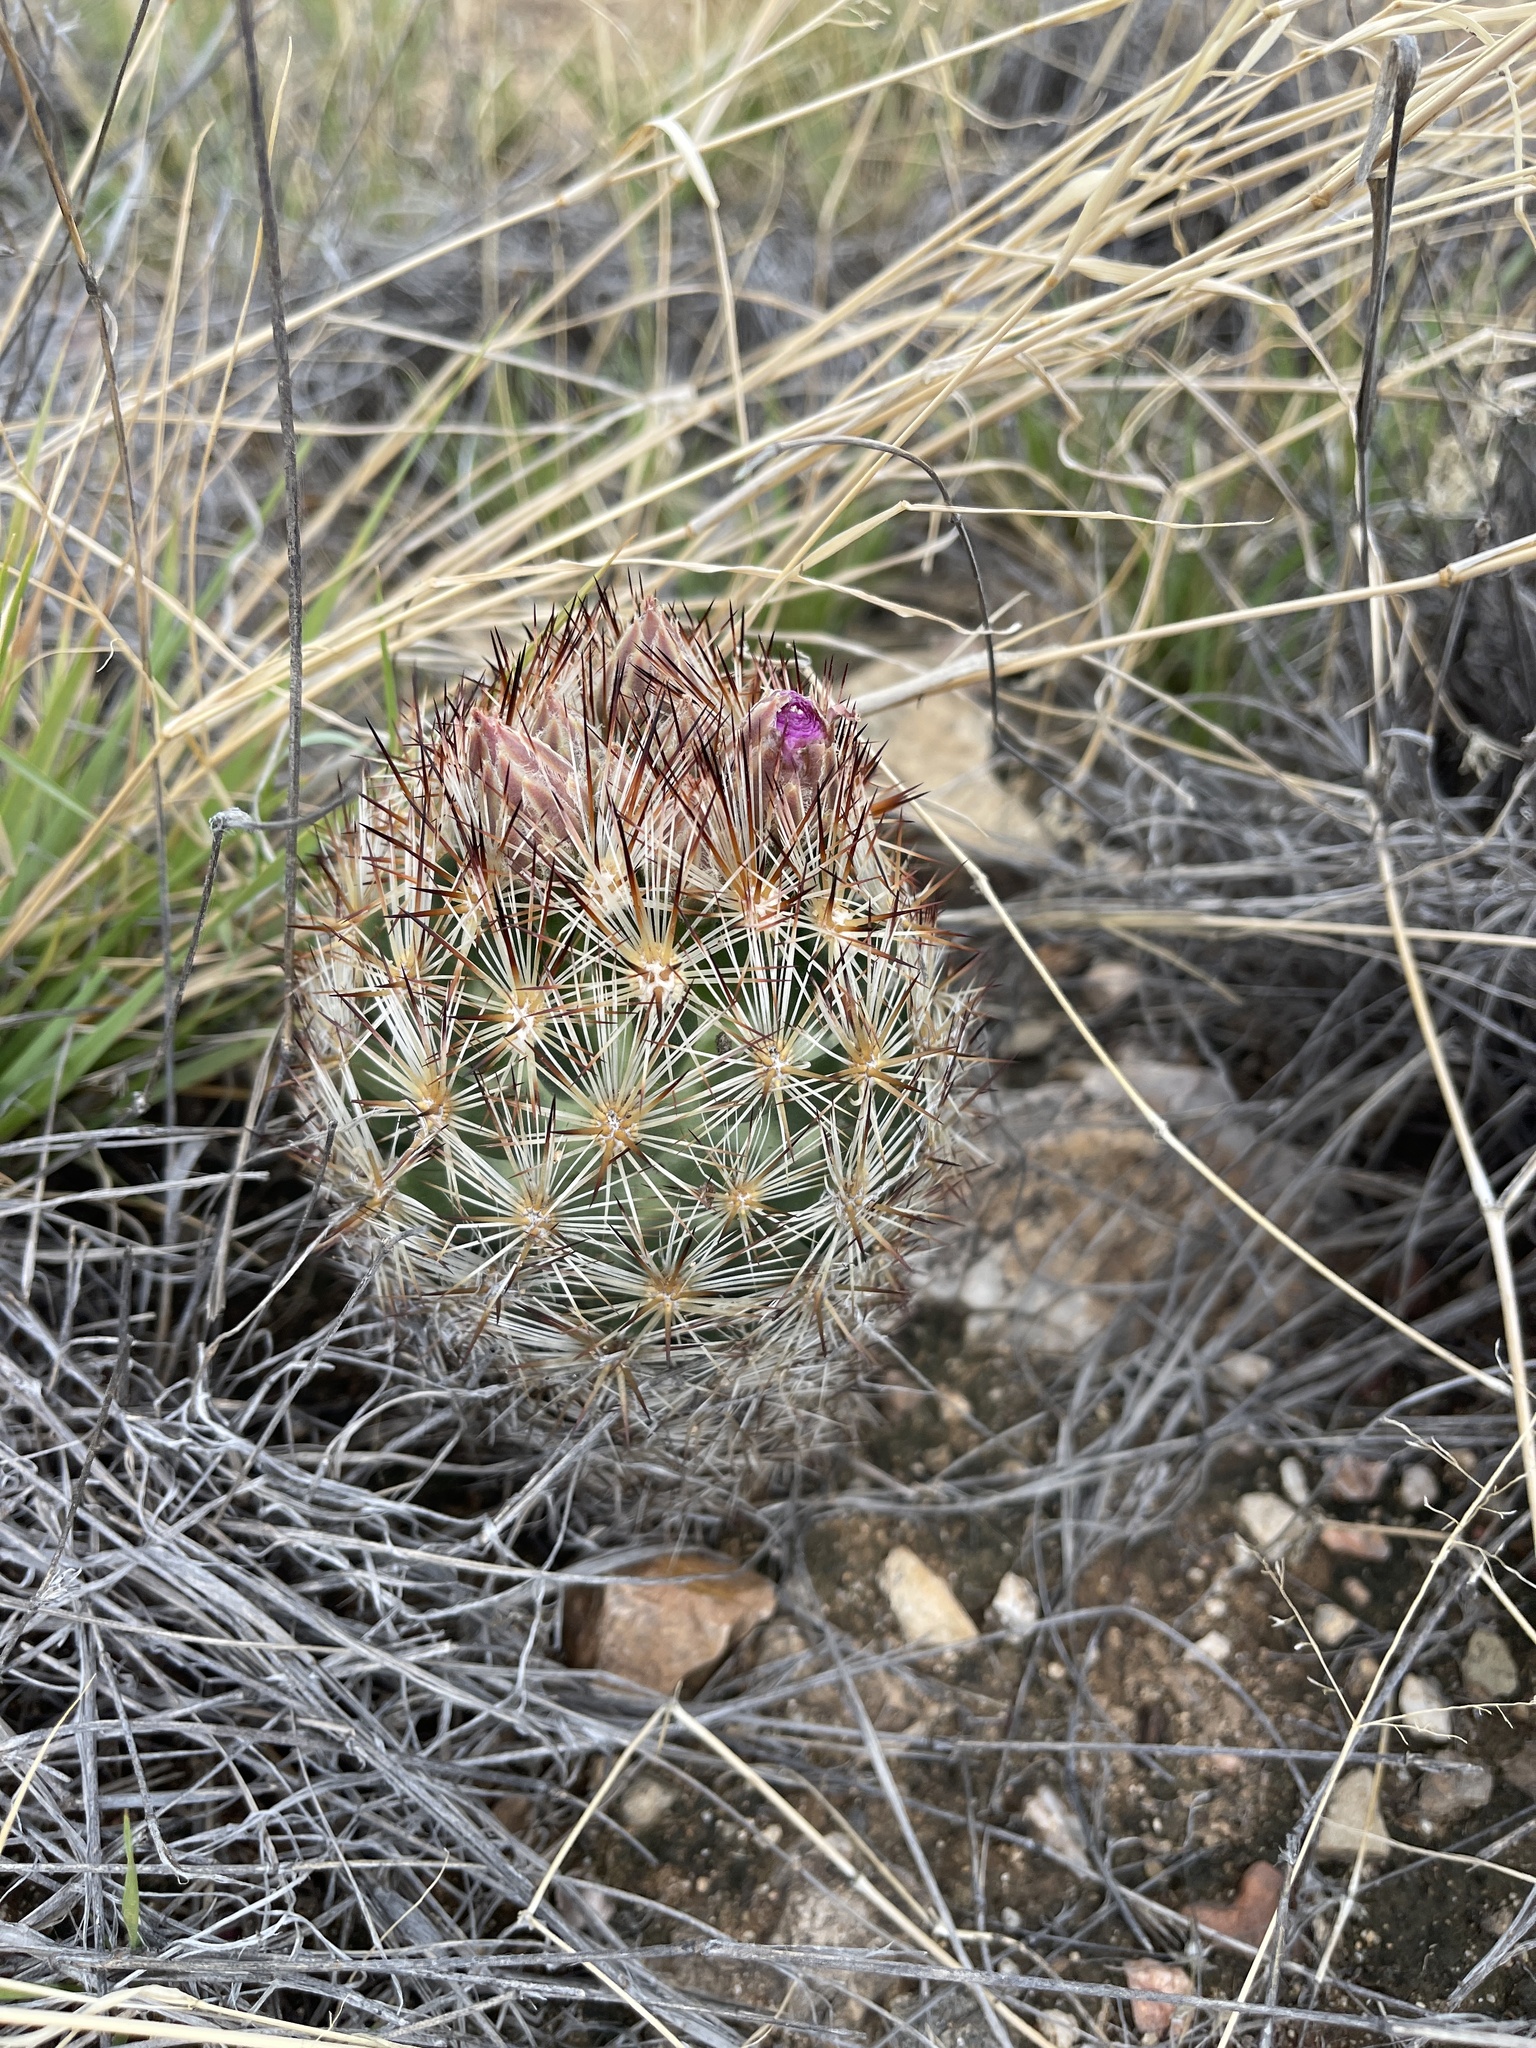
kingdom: Plantae
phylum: Tracheophyta
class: Magnoliopsida
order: Caryophyllales
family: Cactaceae
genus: Pelecyphora
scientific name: Pelecyphora vivipara
